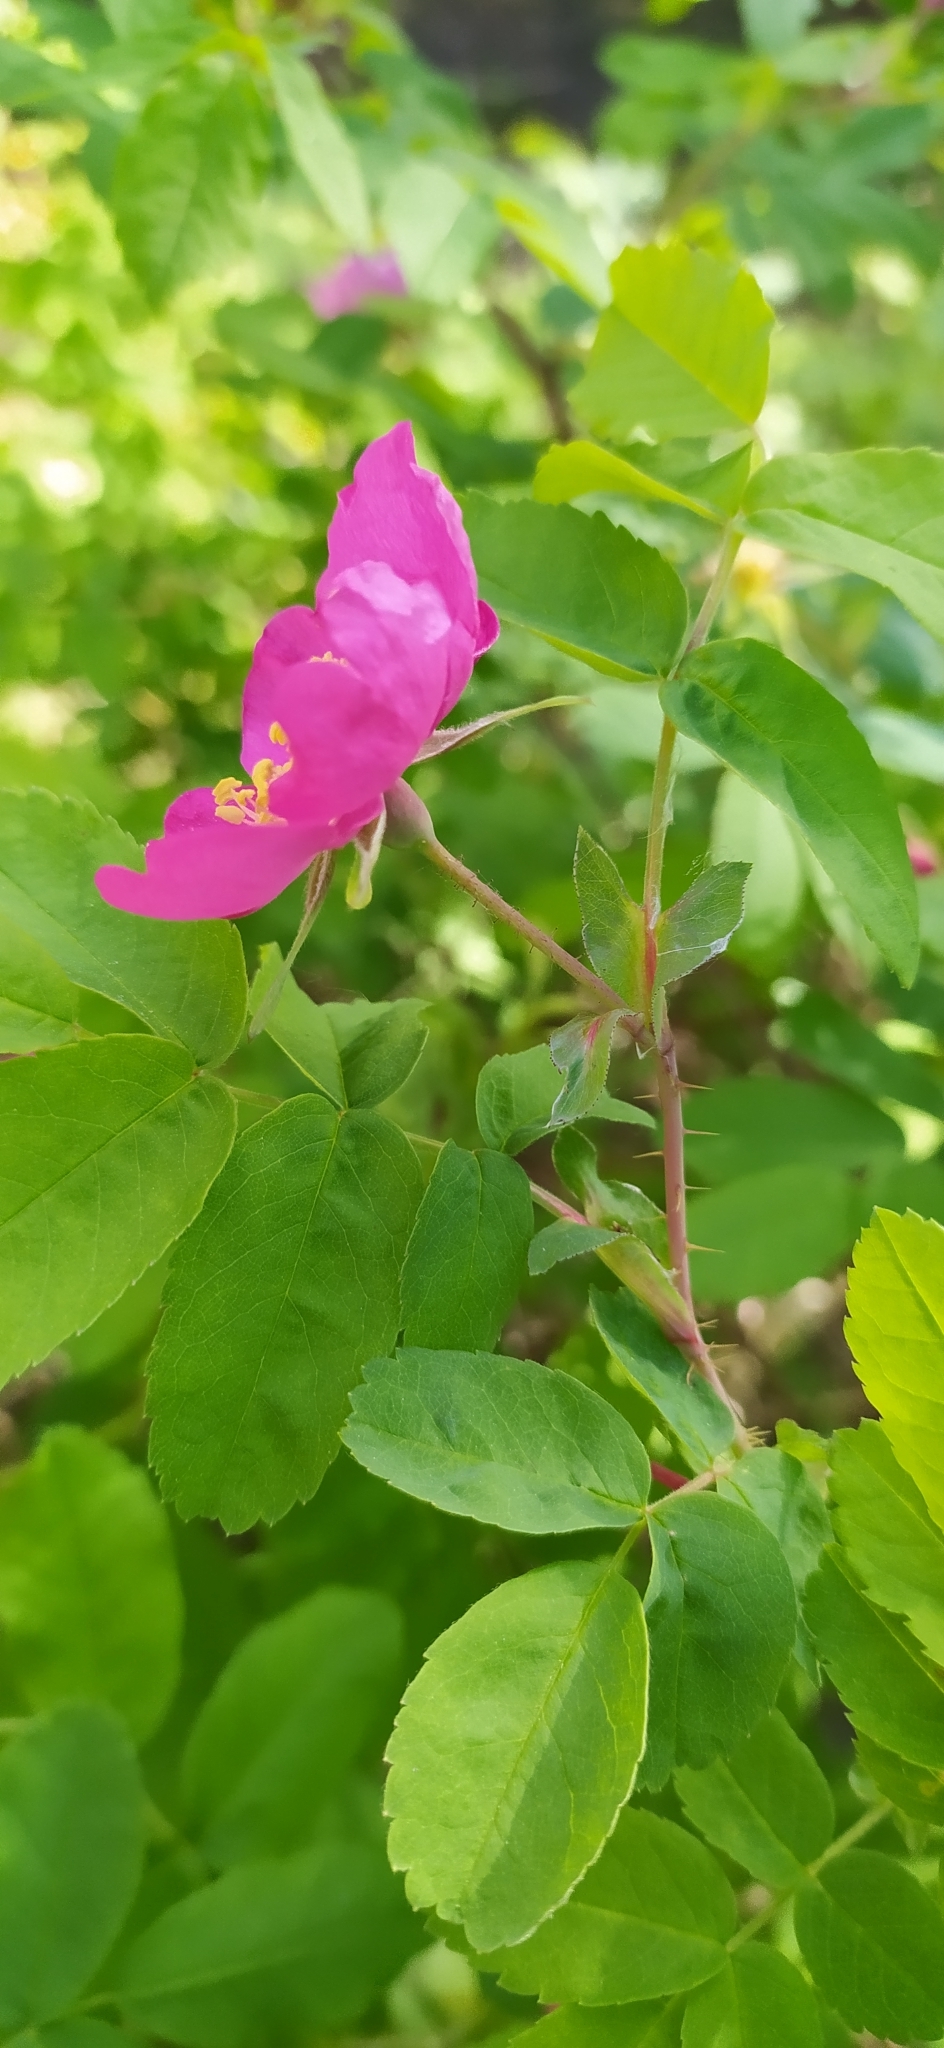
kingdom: Plantae
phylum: Tracheophyta
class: Magnoliopsida
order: Rosales
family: Rosaceae
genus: Rosa
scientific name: Rosa acicularis
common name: Prickly rose
